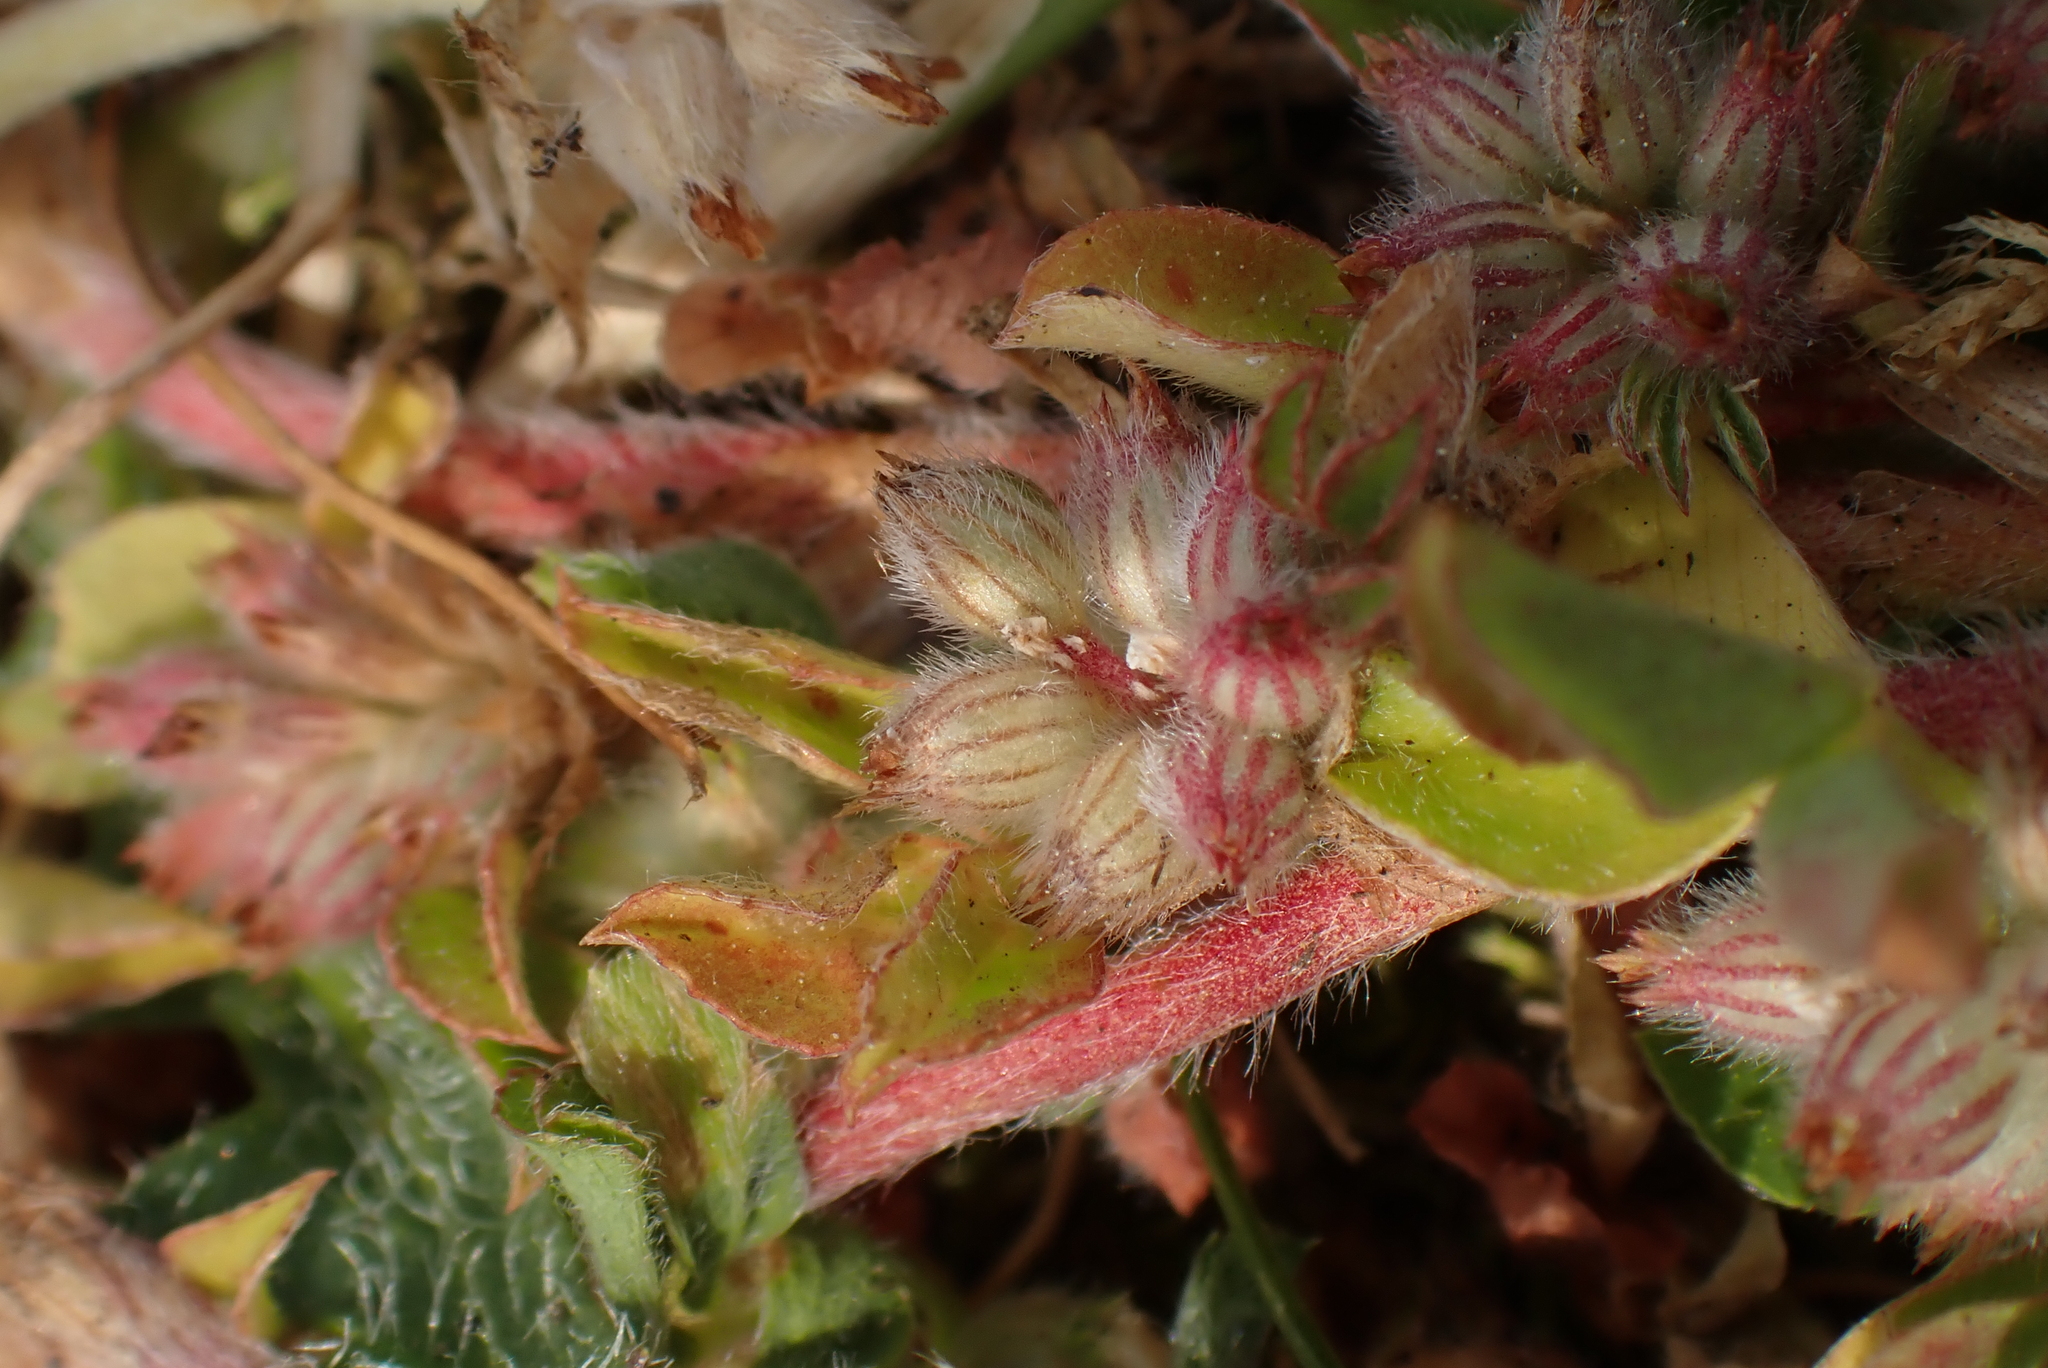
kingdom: Plantae
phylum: Tracheophyta
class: Magnoliopsida
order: Fabales
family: Fabaceae
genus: Trifolium
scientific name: Trifolium striatum
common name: Knotted clover
